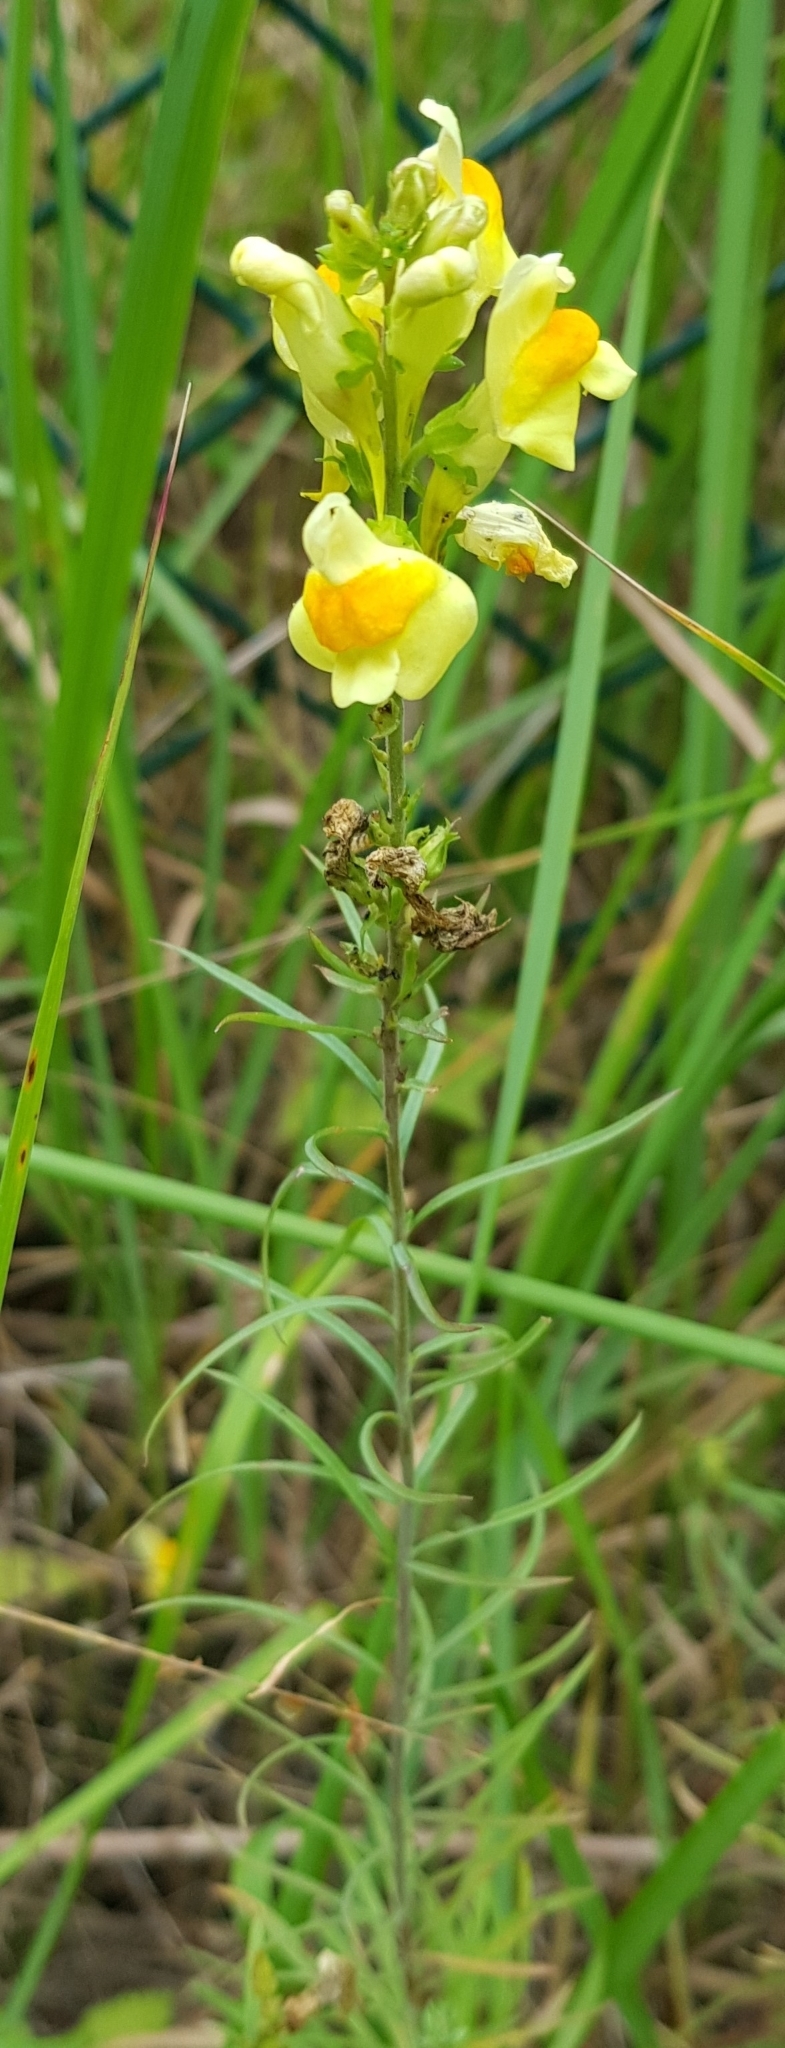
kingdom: Plantae
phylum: Tracheophyta
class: Magnoliopsida
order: Lamiales
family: Plantaginaceae
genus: Linaria
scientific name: Linaria vulgaris
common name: Butter and eggs
